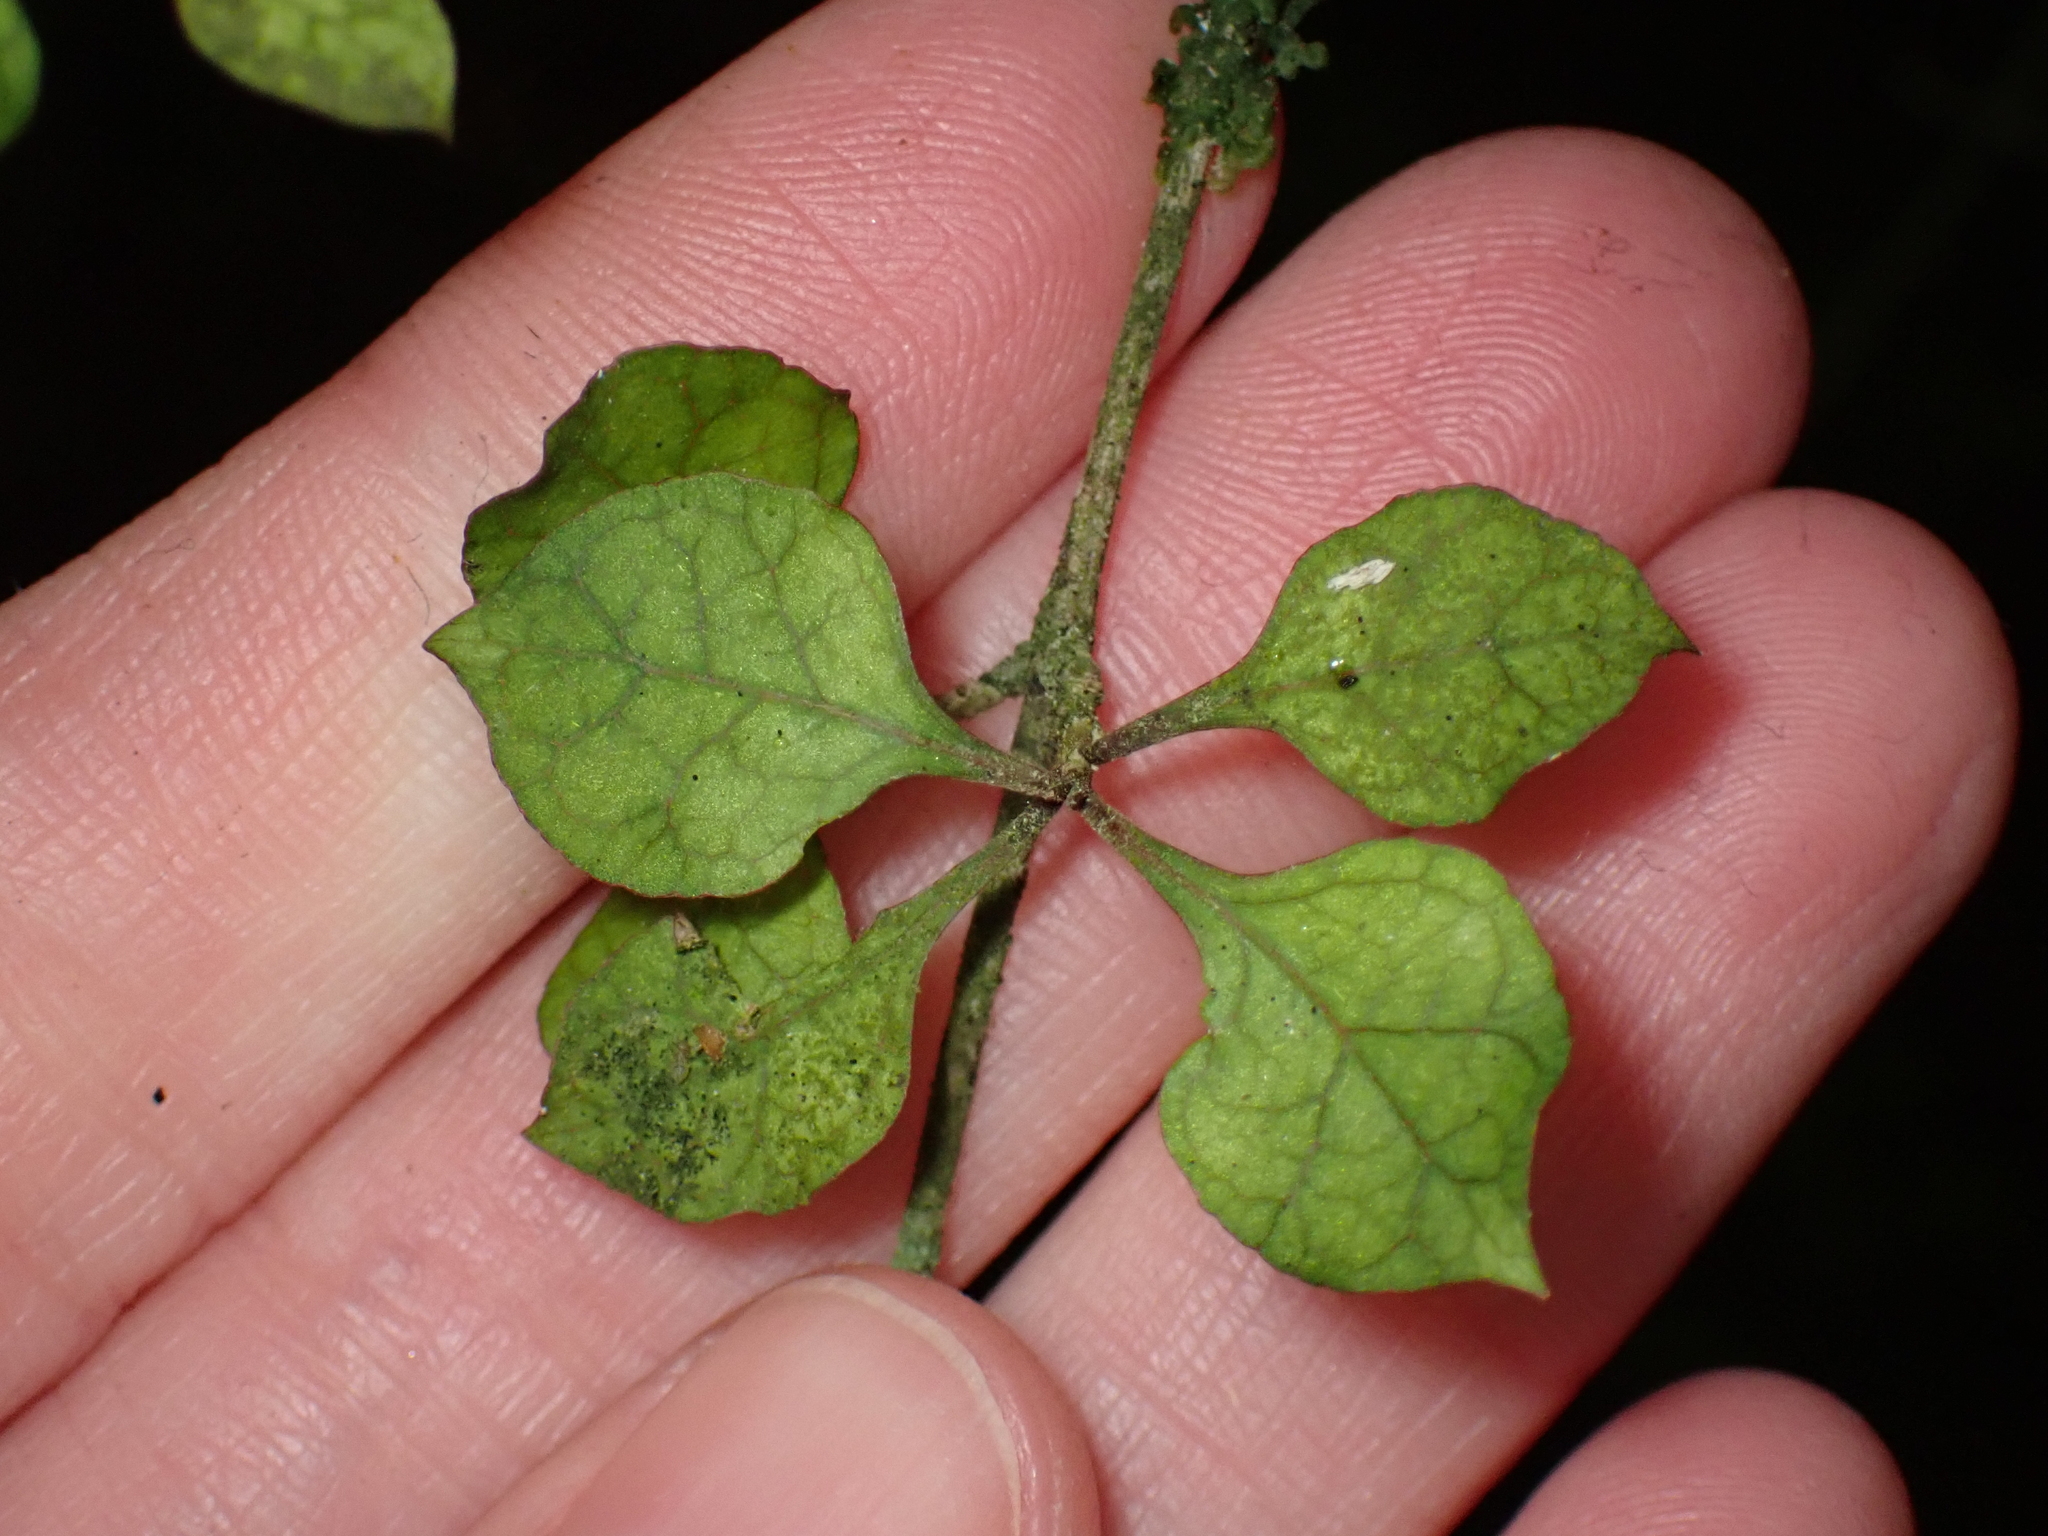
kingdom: Plantae
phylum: Tracheophyta
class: Magnoliopsida
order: Gentianales
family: Rubiaceae
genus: Coprosma
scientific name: Coprosma areolata
